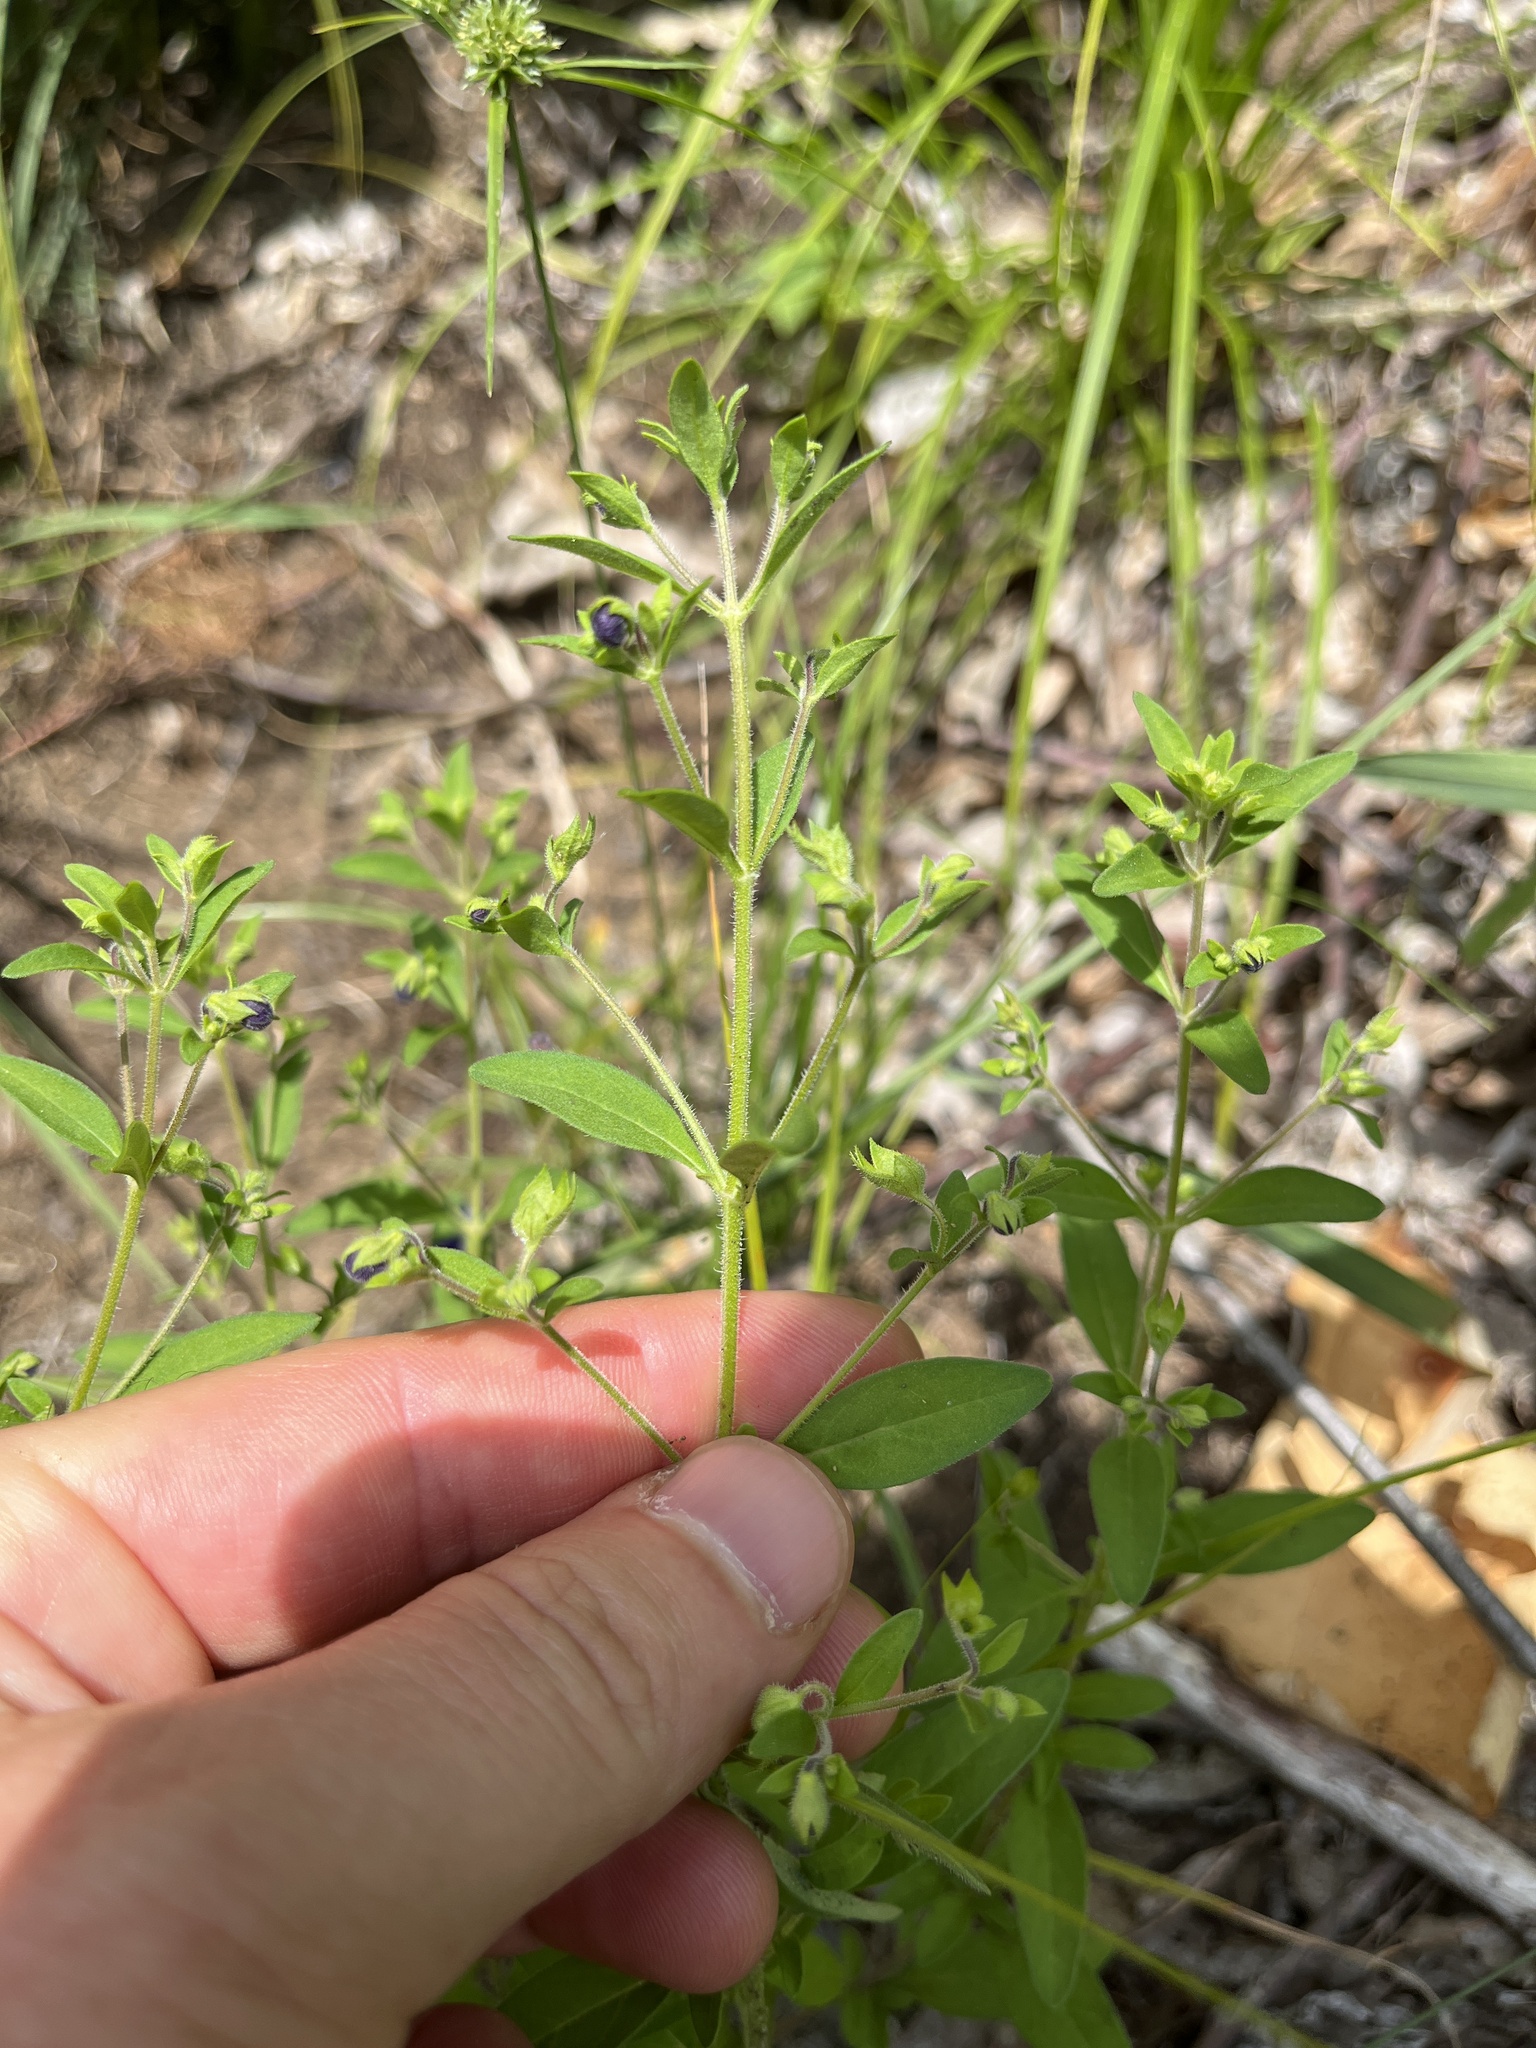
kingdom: Plantae
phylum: Tracheophyta
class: Magnoliopsida
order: Lamiales
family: Lamiaceae
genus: Trichostema
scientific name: Trichostema dichotomum
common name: Bastard pennyroyal
